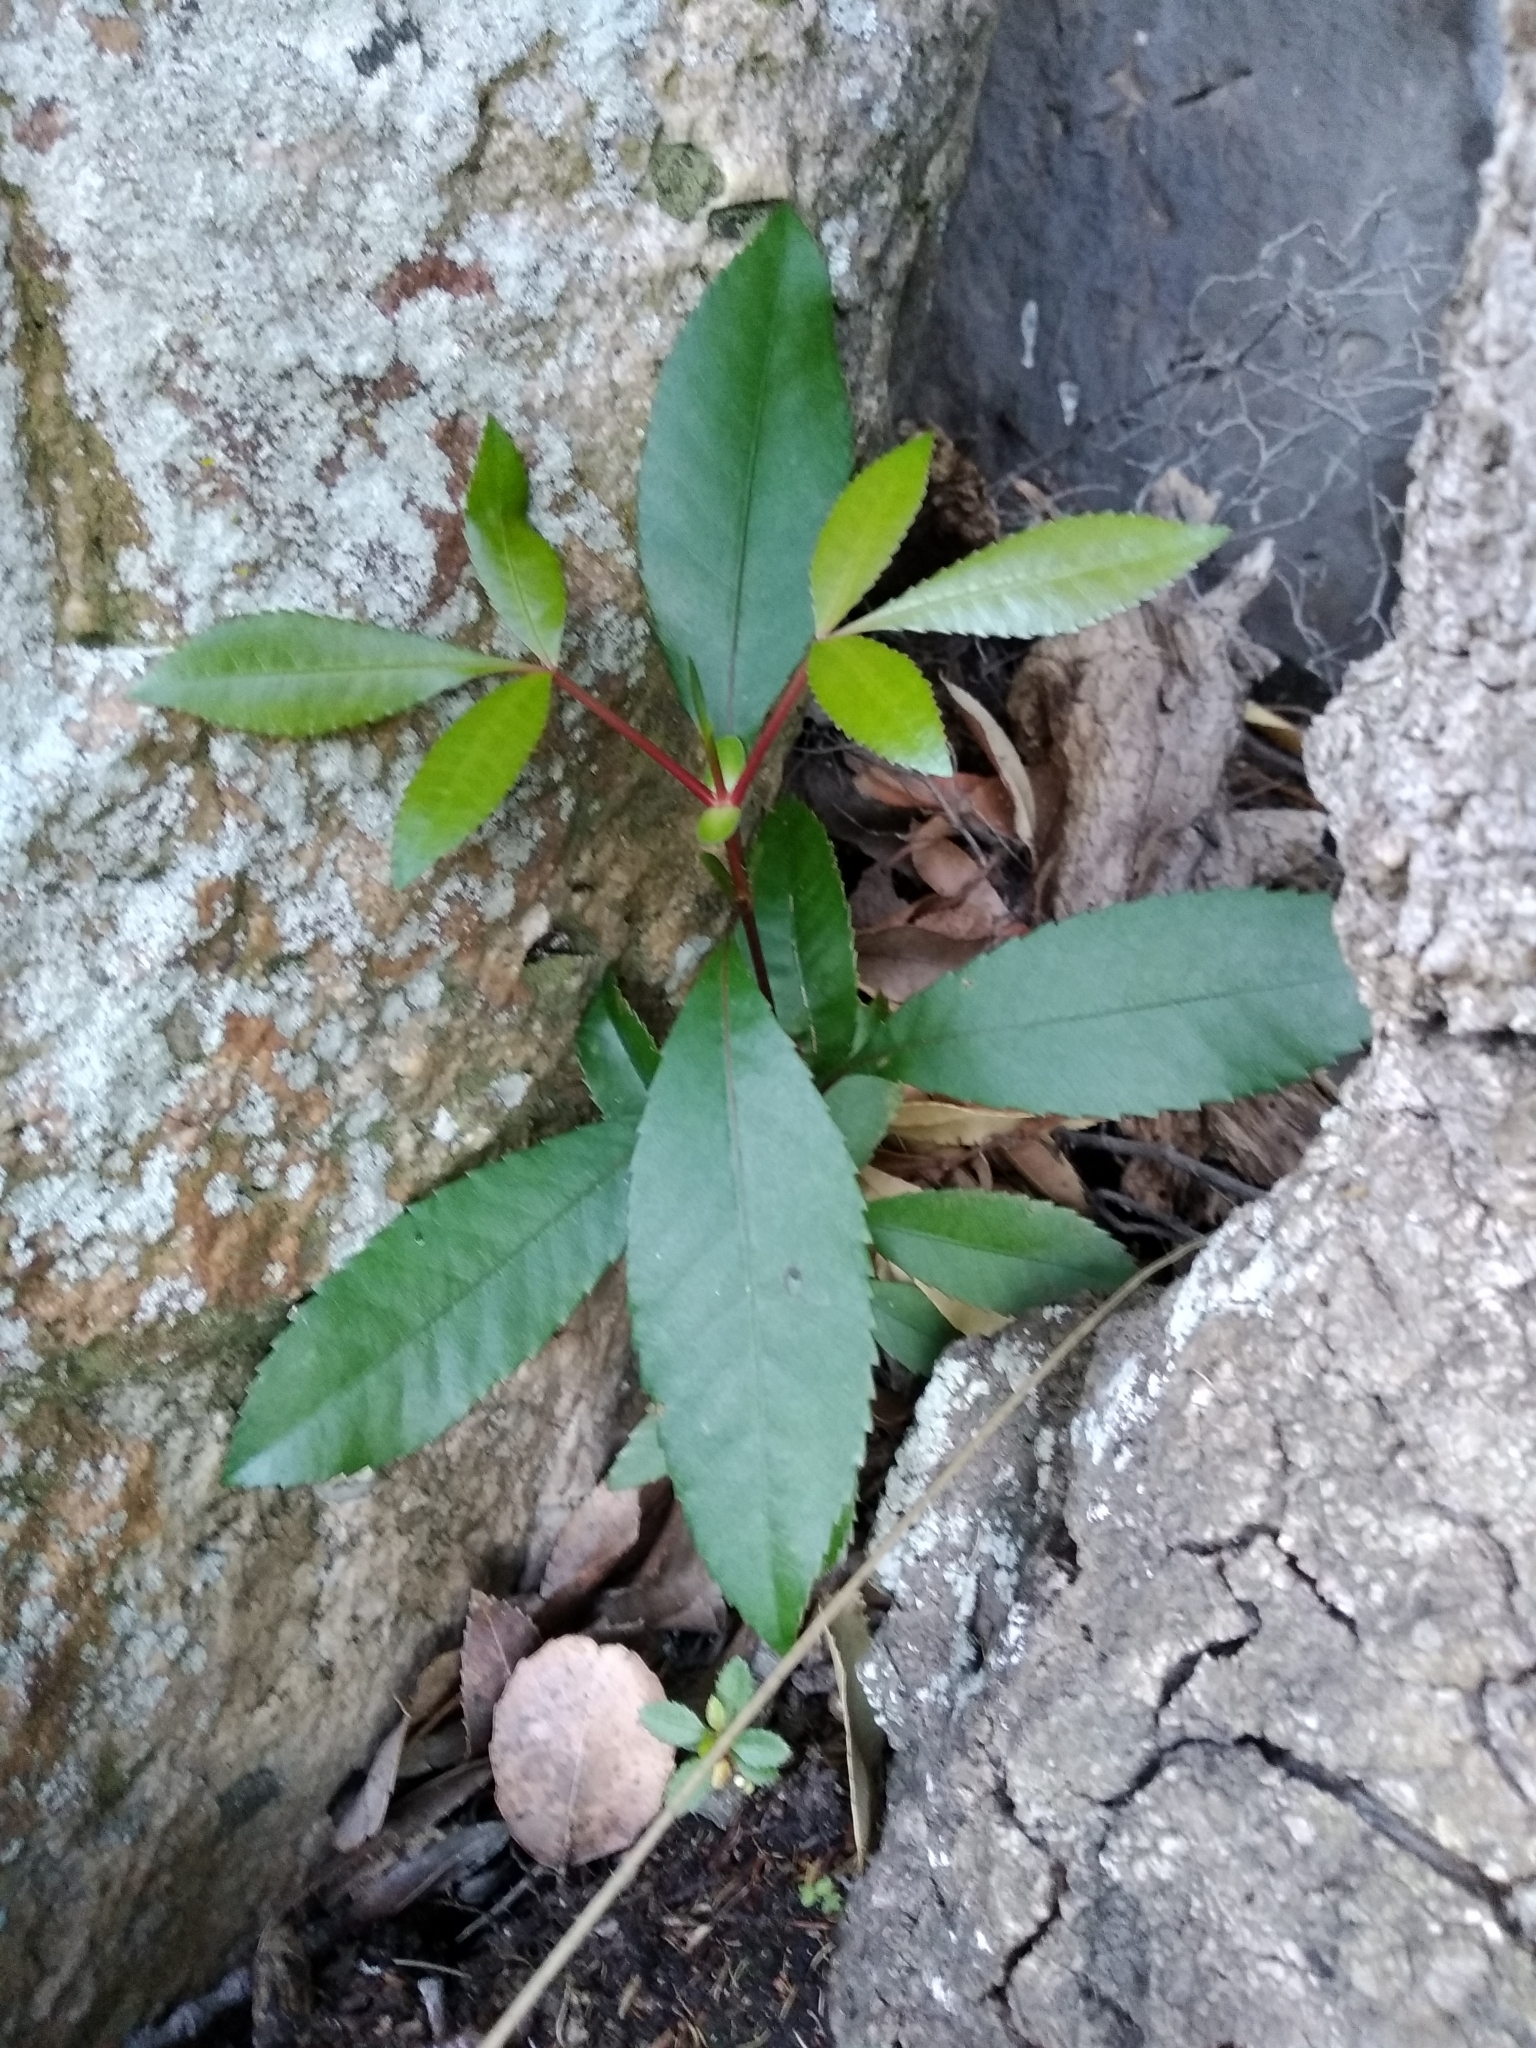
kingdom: Plantae
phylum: Tracheophyta
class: Magnoliopsida
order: Oxalidales
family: Cunoniaceae
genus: Cunonia
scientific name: Cunonia capensis
